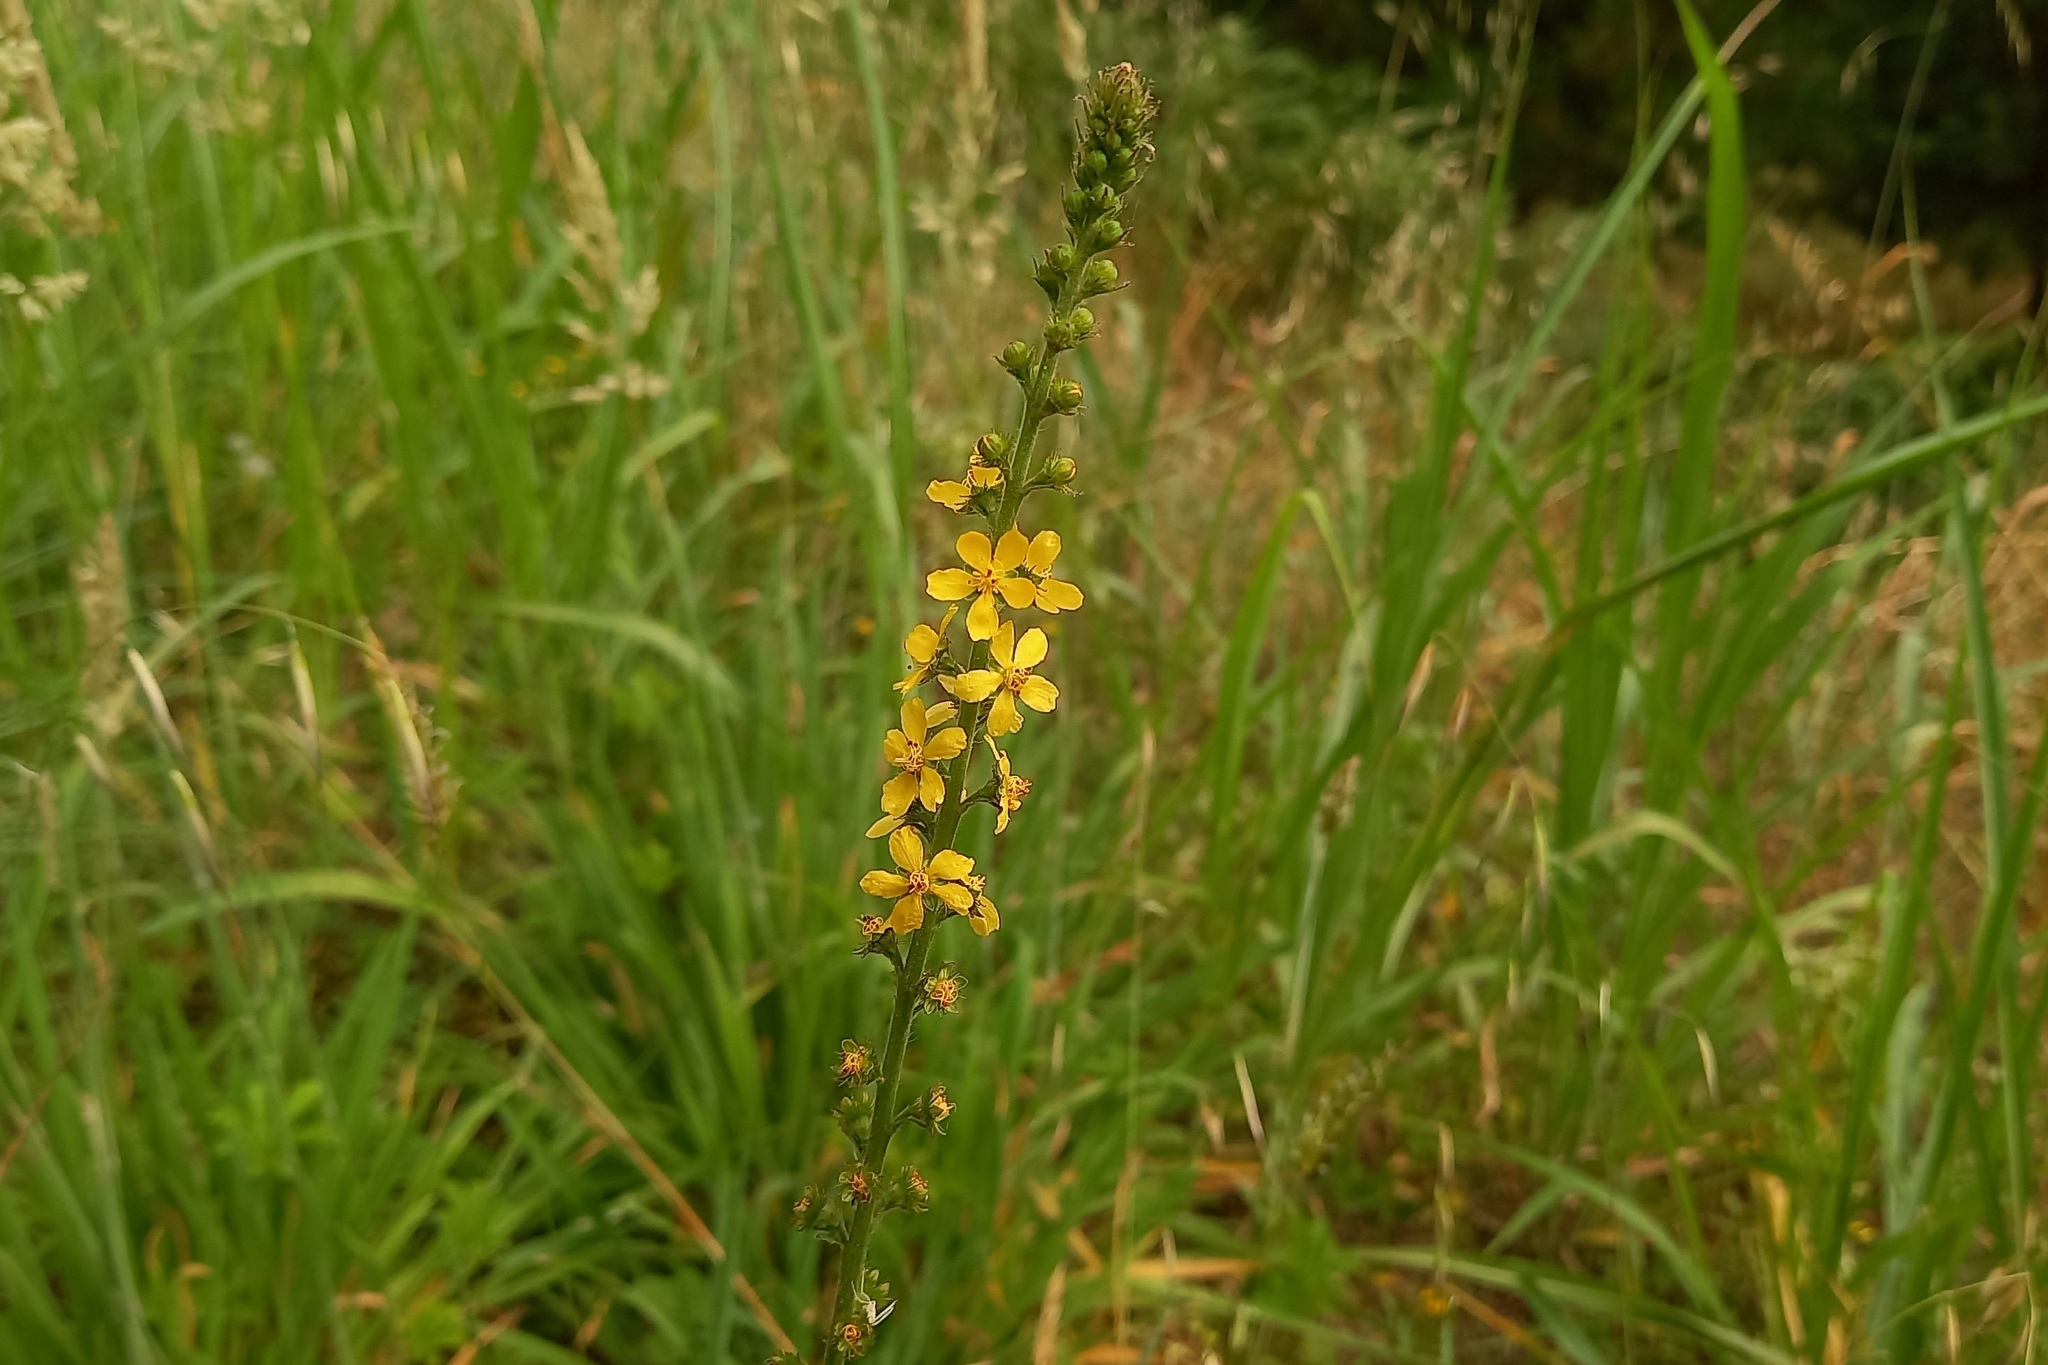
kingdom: Plantae
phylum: Tracheophyta
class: Magnoliopsida
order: Rosales
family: Rosaceae
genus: Agrimonia
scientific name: Agrimonia eupatoria
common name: Agrimony
